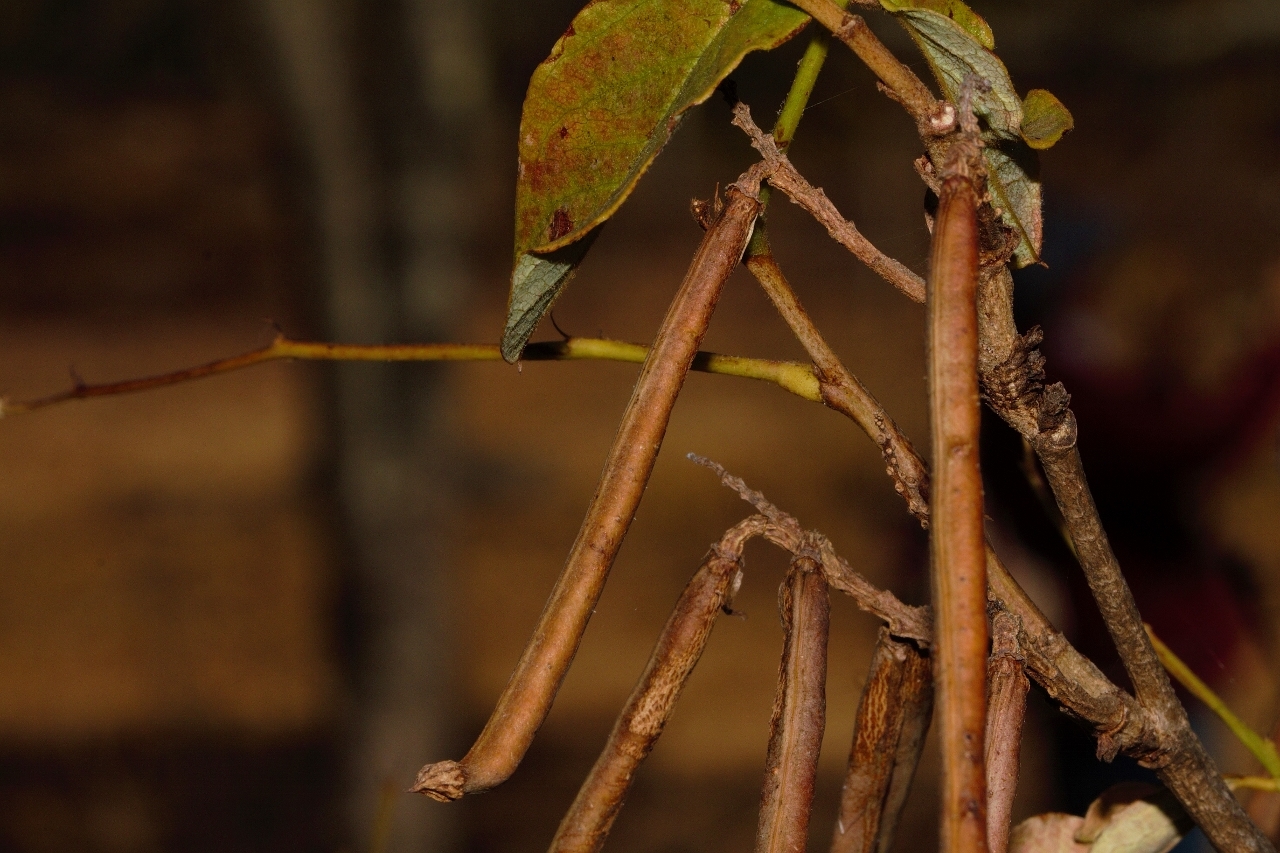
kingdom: Plantae
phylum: Tracheophyta
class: Magnoliopsida
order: Fabales
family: Fabaceae
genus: Indigofera
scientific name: Indigofera rhynchocarpa
